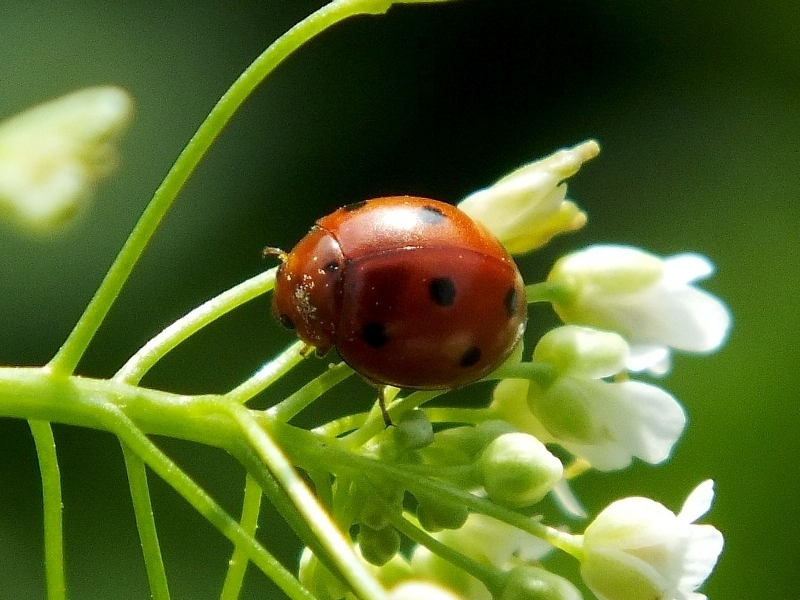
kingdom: Animalia
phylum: Arthropoda
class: Insecta
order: Coleoptera
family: Coccinellidae
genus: Exochomus
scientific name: Exochomus octosignatus
